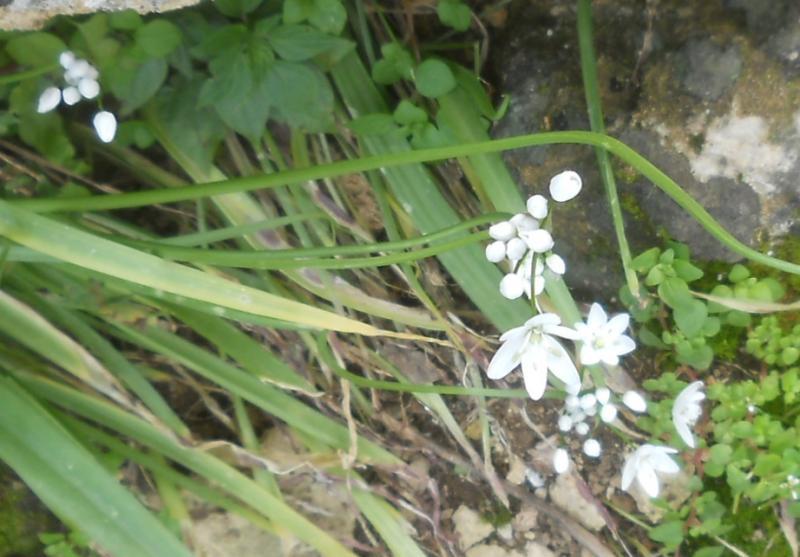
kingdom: Plantae
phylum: Tracheophyta
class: Liliopsida
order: Asparagales
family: Amaryllidaceae
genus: Allium
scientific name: Allium neapolitanum
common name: Neapolitan garlic
